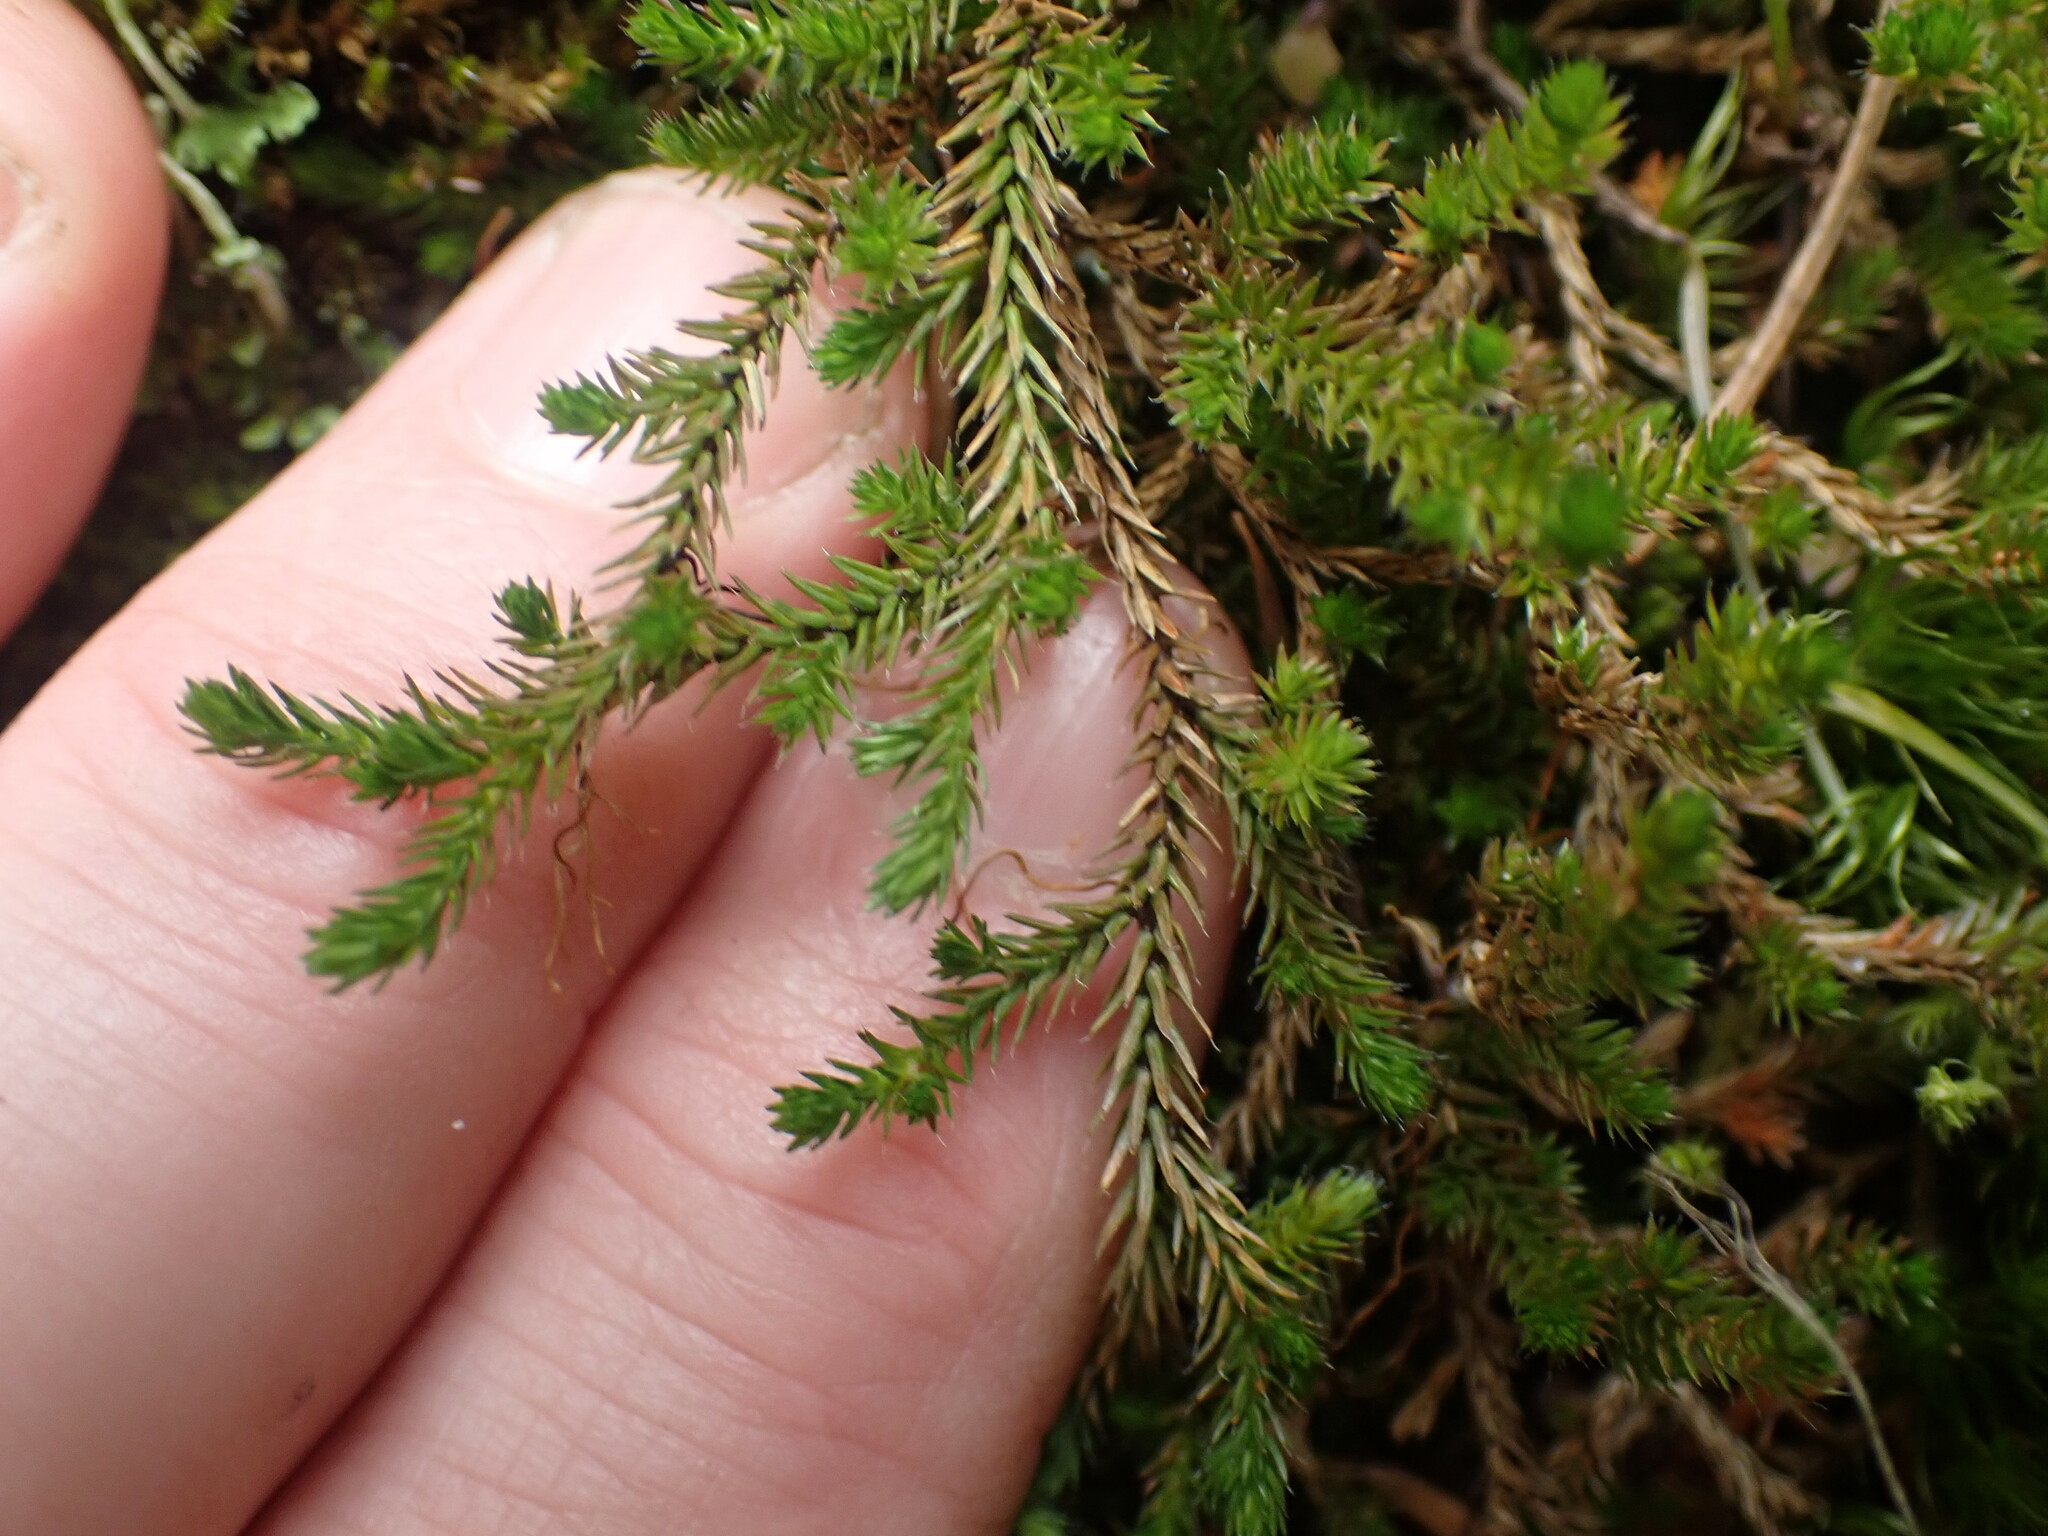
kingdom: Plantae
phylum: Tracheophyta
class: Lycopodiopsida
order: Selaginellales
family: Selaginellaceae
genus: Selaginella
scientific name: Selaginella wallacei
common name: Wallace's selaginella
